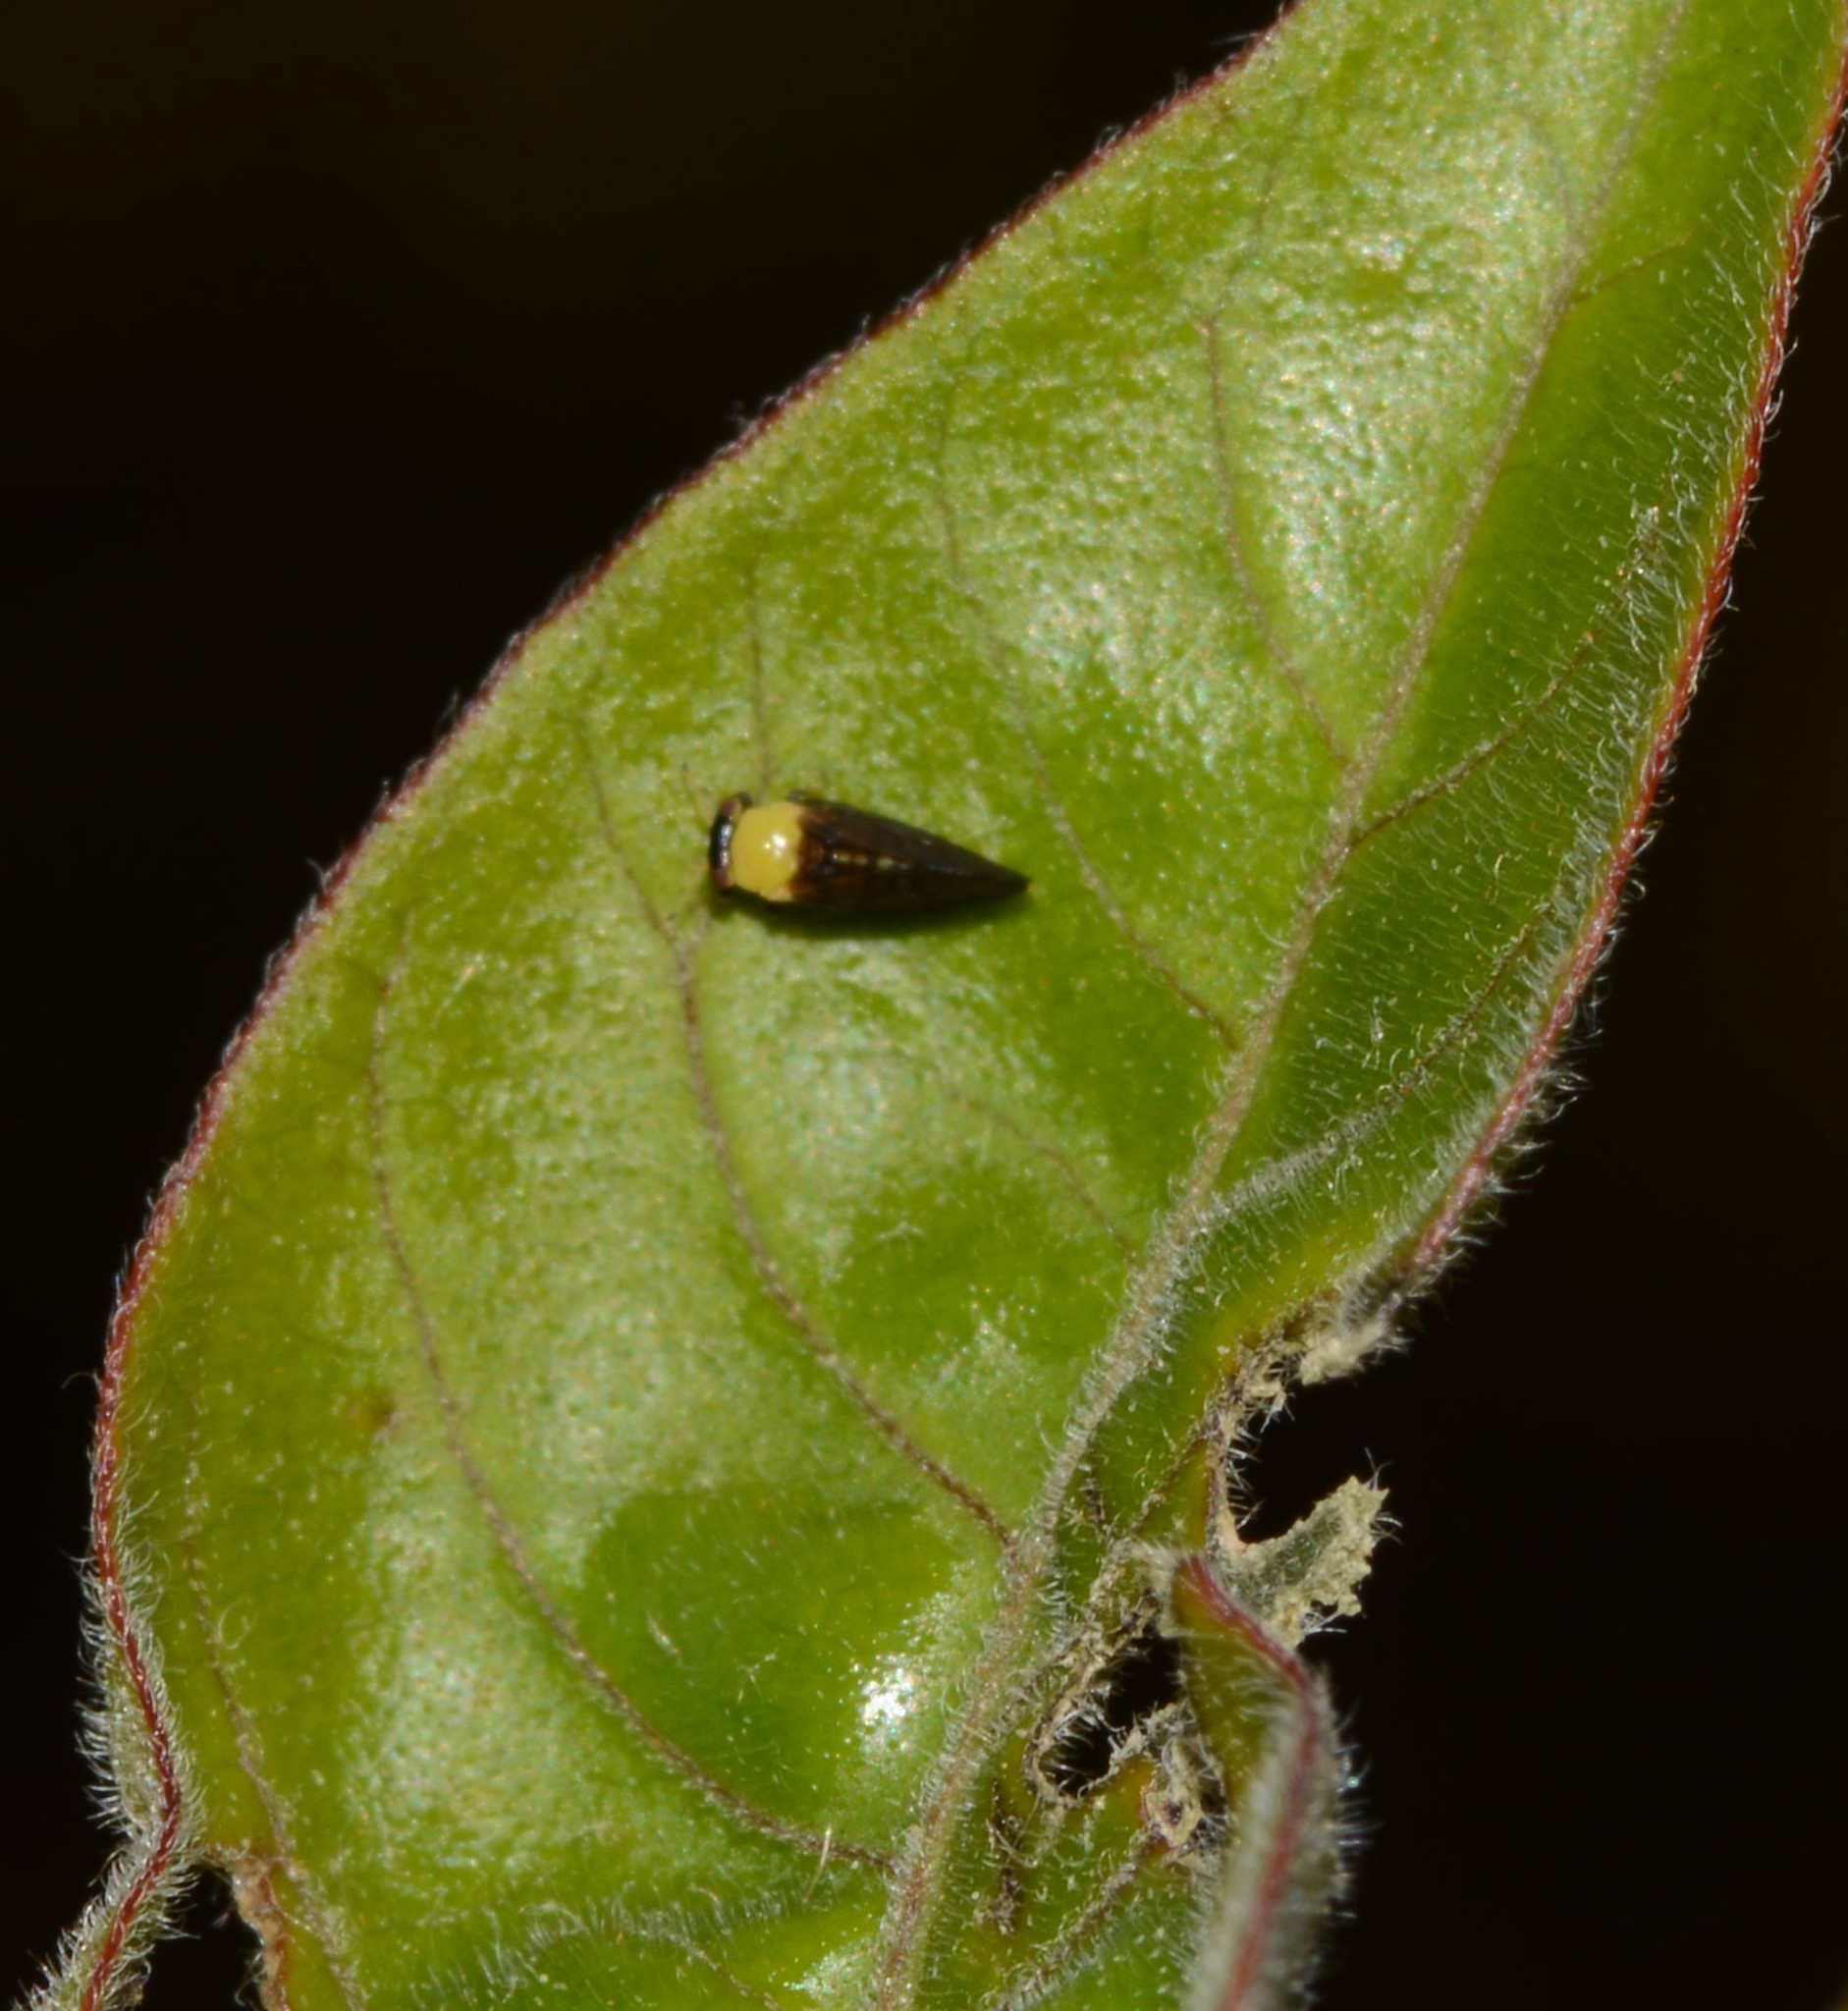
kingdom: Animalia
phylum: Arthropoda
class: Insecta
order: Hemiptera
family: Calophyidae
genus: Calophya
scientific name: Calophya nigripennis
